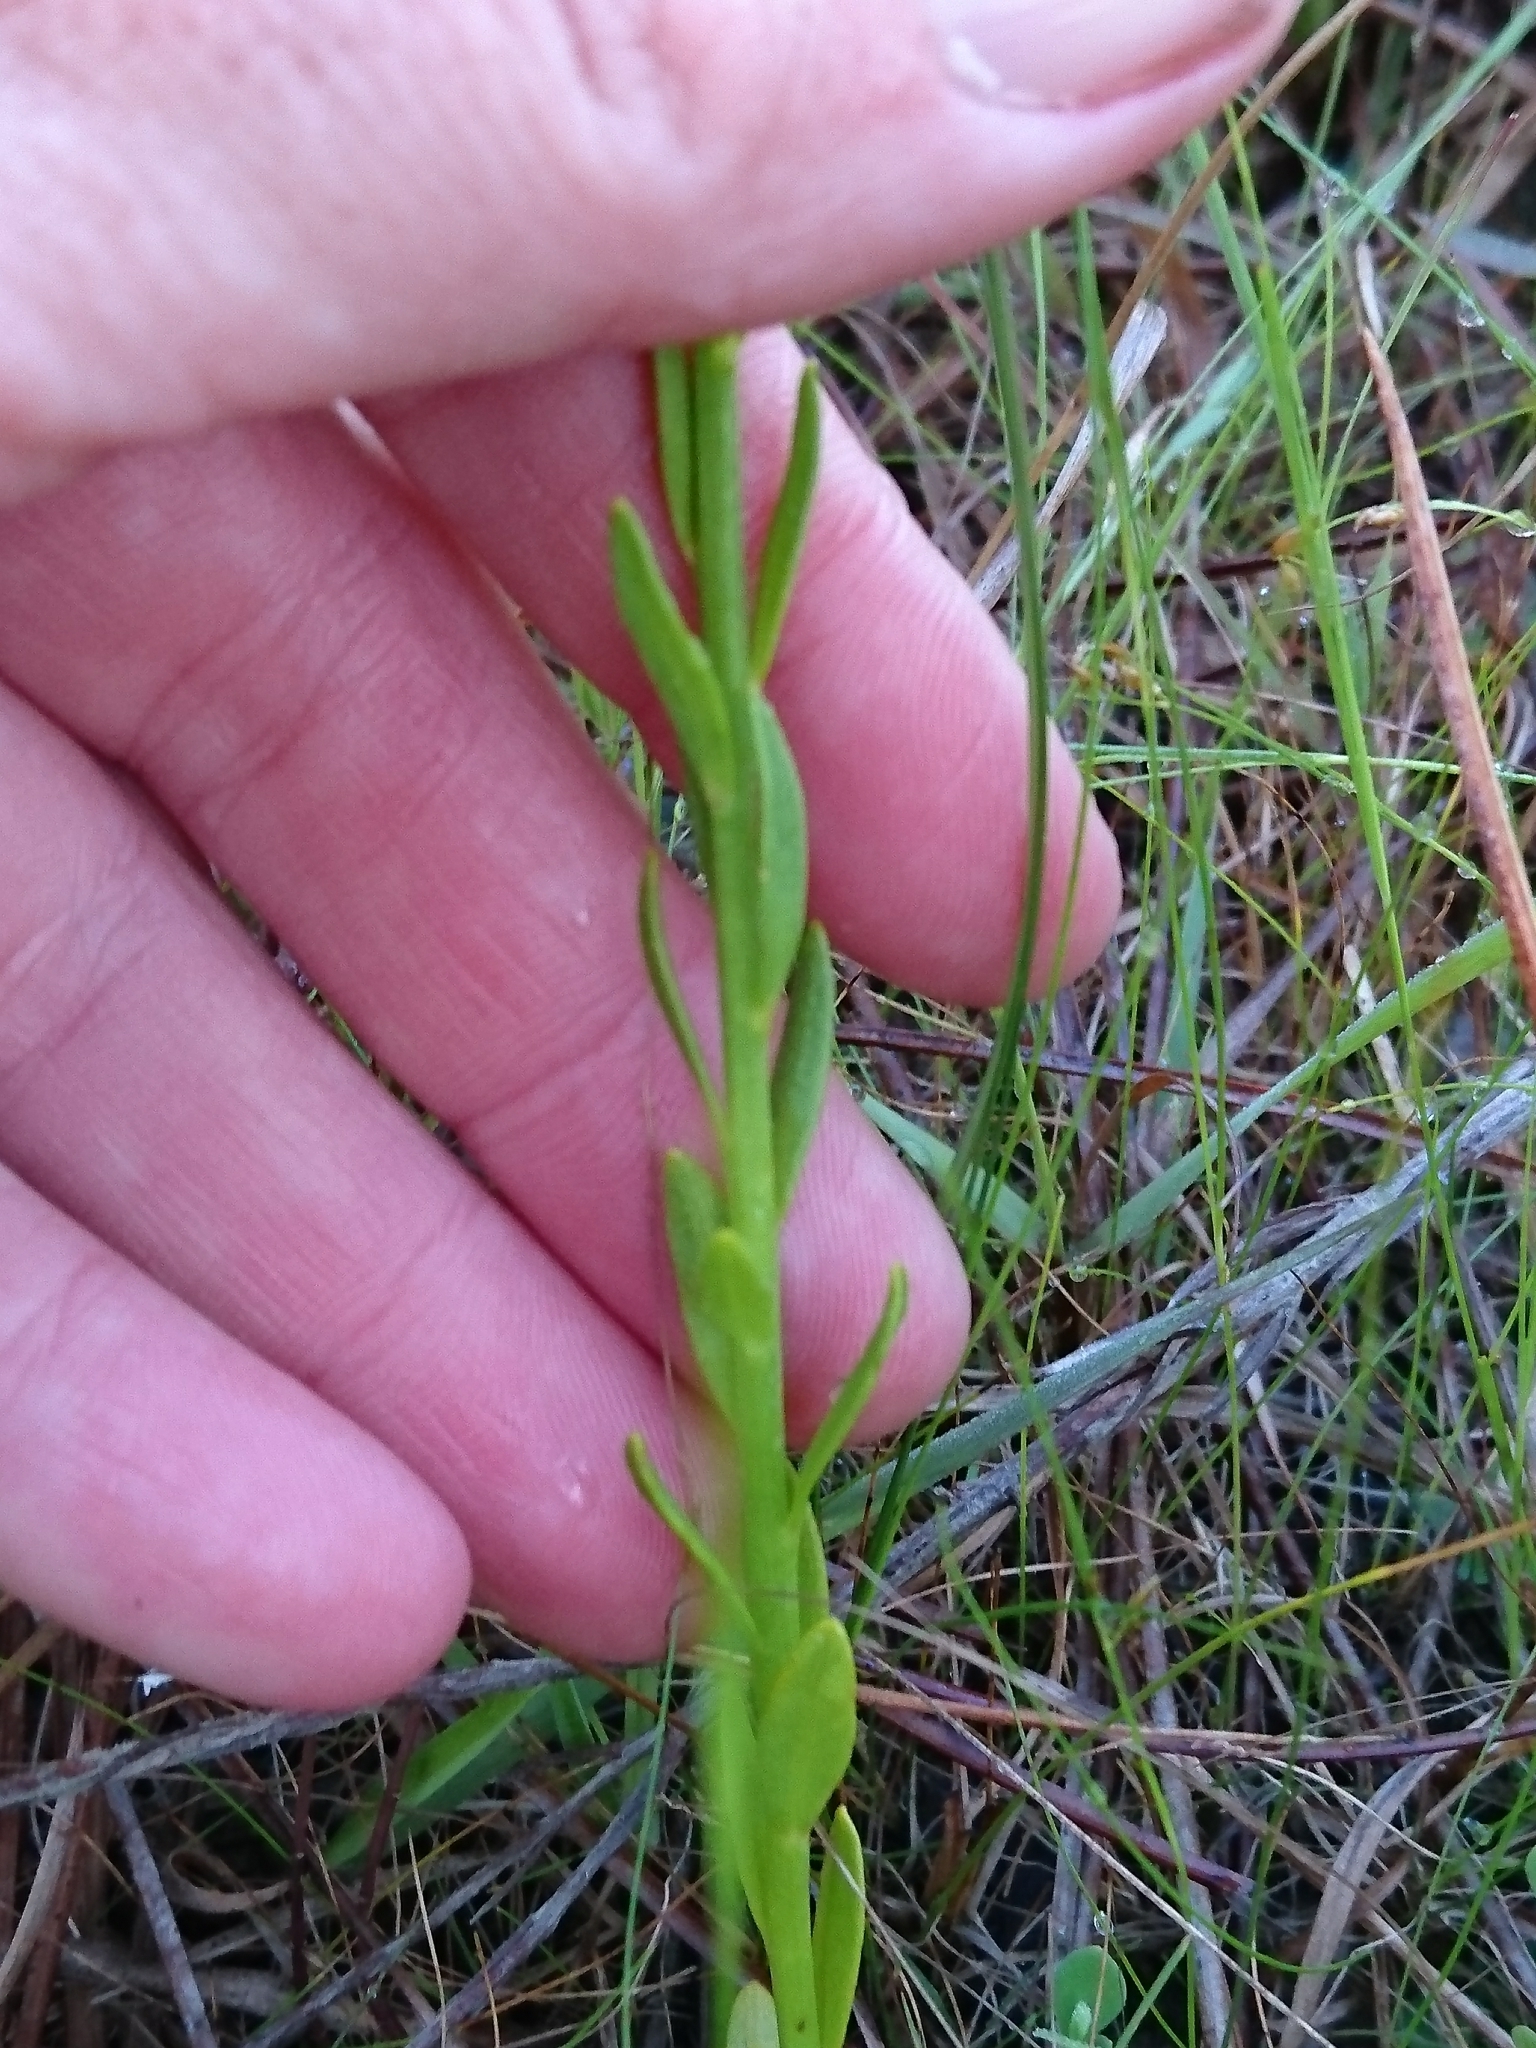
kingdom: Plantae
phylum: Tracheophyta
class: Magnoliopsida
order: Fabales
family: Polygalaceae
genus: Polygala
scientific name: Polygala ramosa
